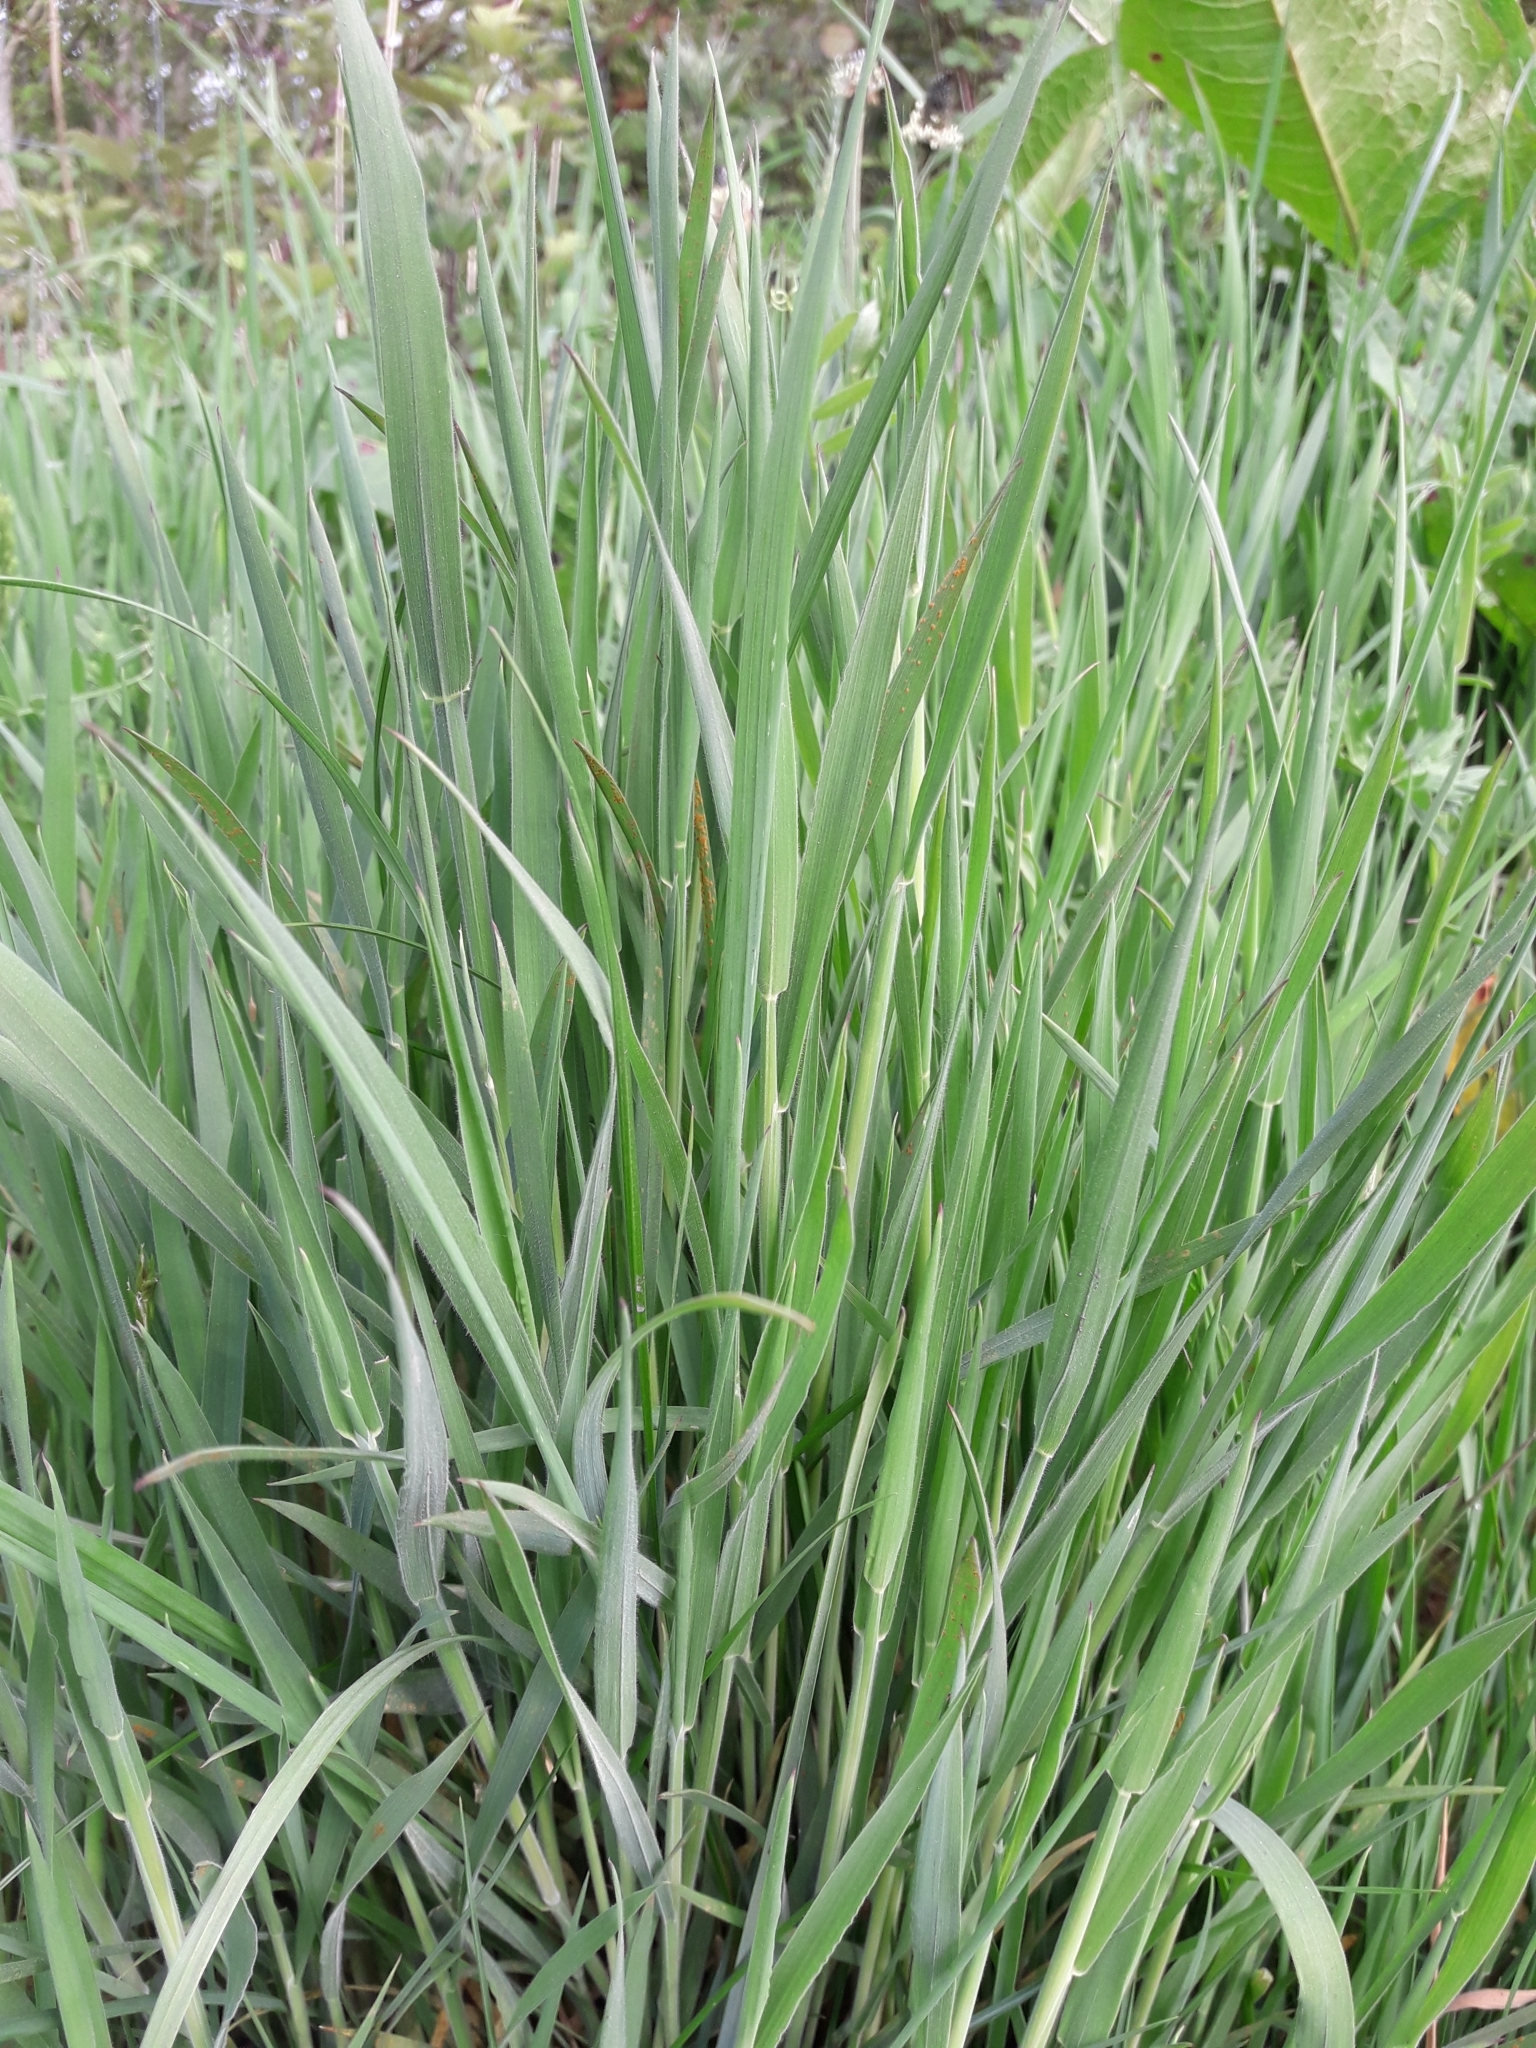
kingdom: Plantae
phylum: Tracheophyta
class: Liliopsida
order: Poales
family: Poaceae
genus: Holcus
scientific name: Holcus lanatus
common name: Yorkshire-fog
